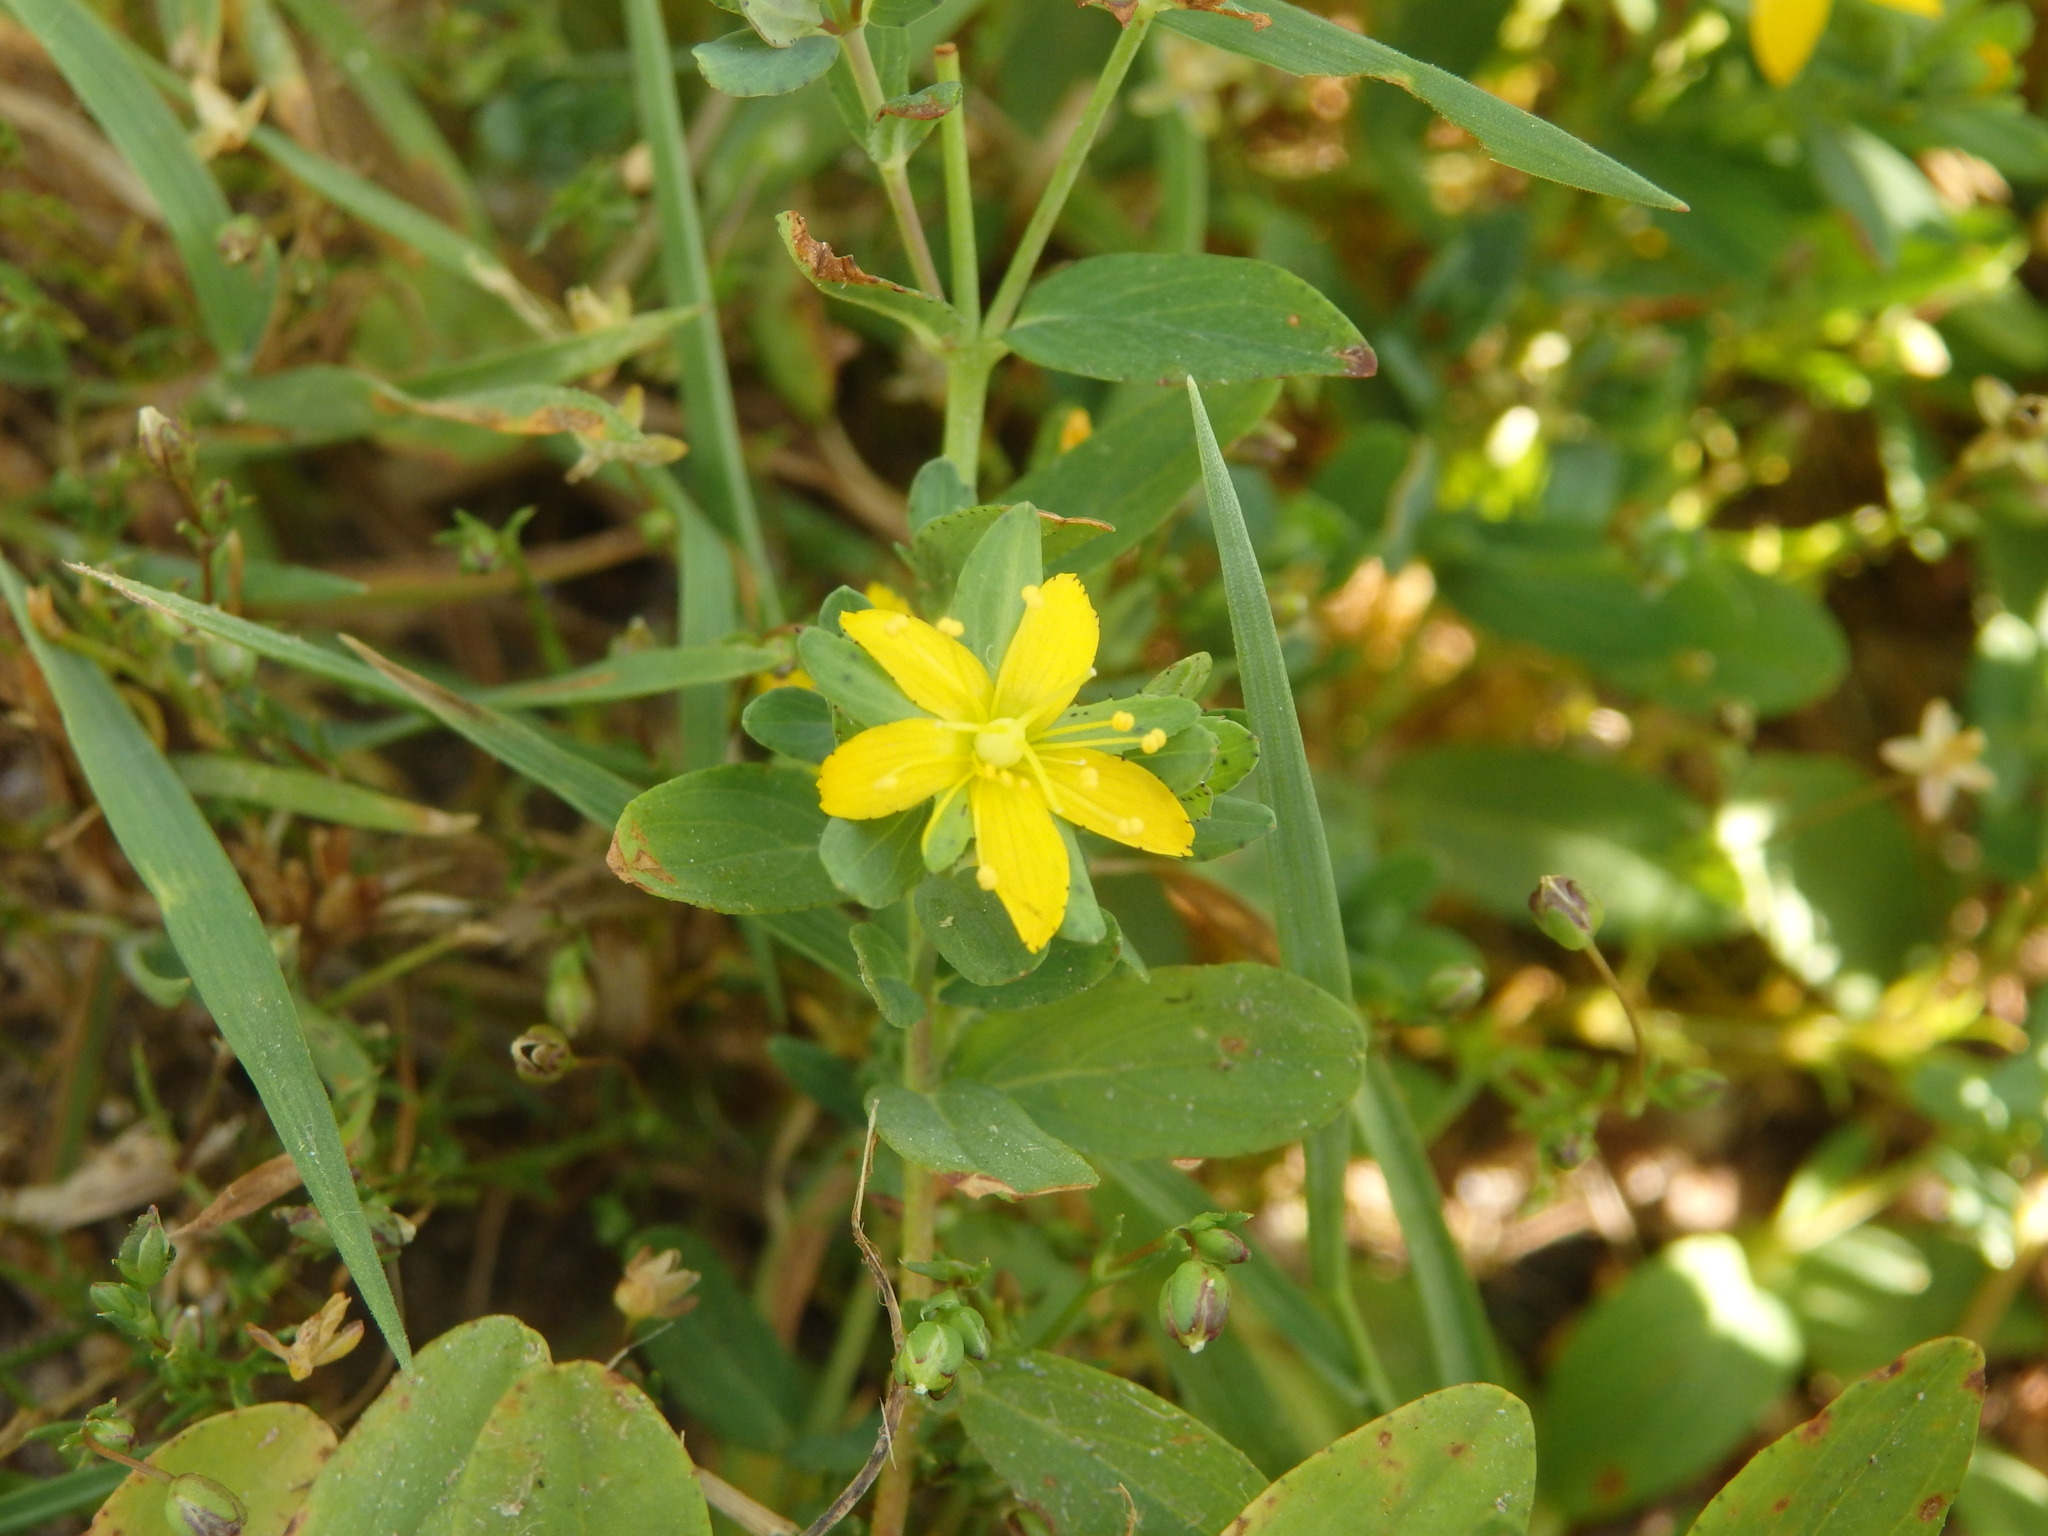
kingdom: Plantae
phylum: Tracheophyta
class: Magnoliopsida
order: Malpighiales
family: Hypericaceae
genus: Hypericum
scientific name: Hypericum humifusum
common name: Trailing st. john's-wort
